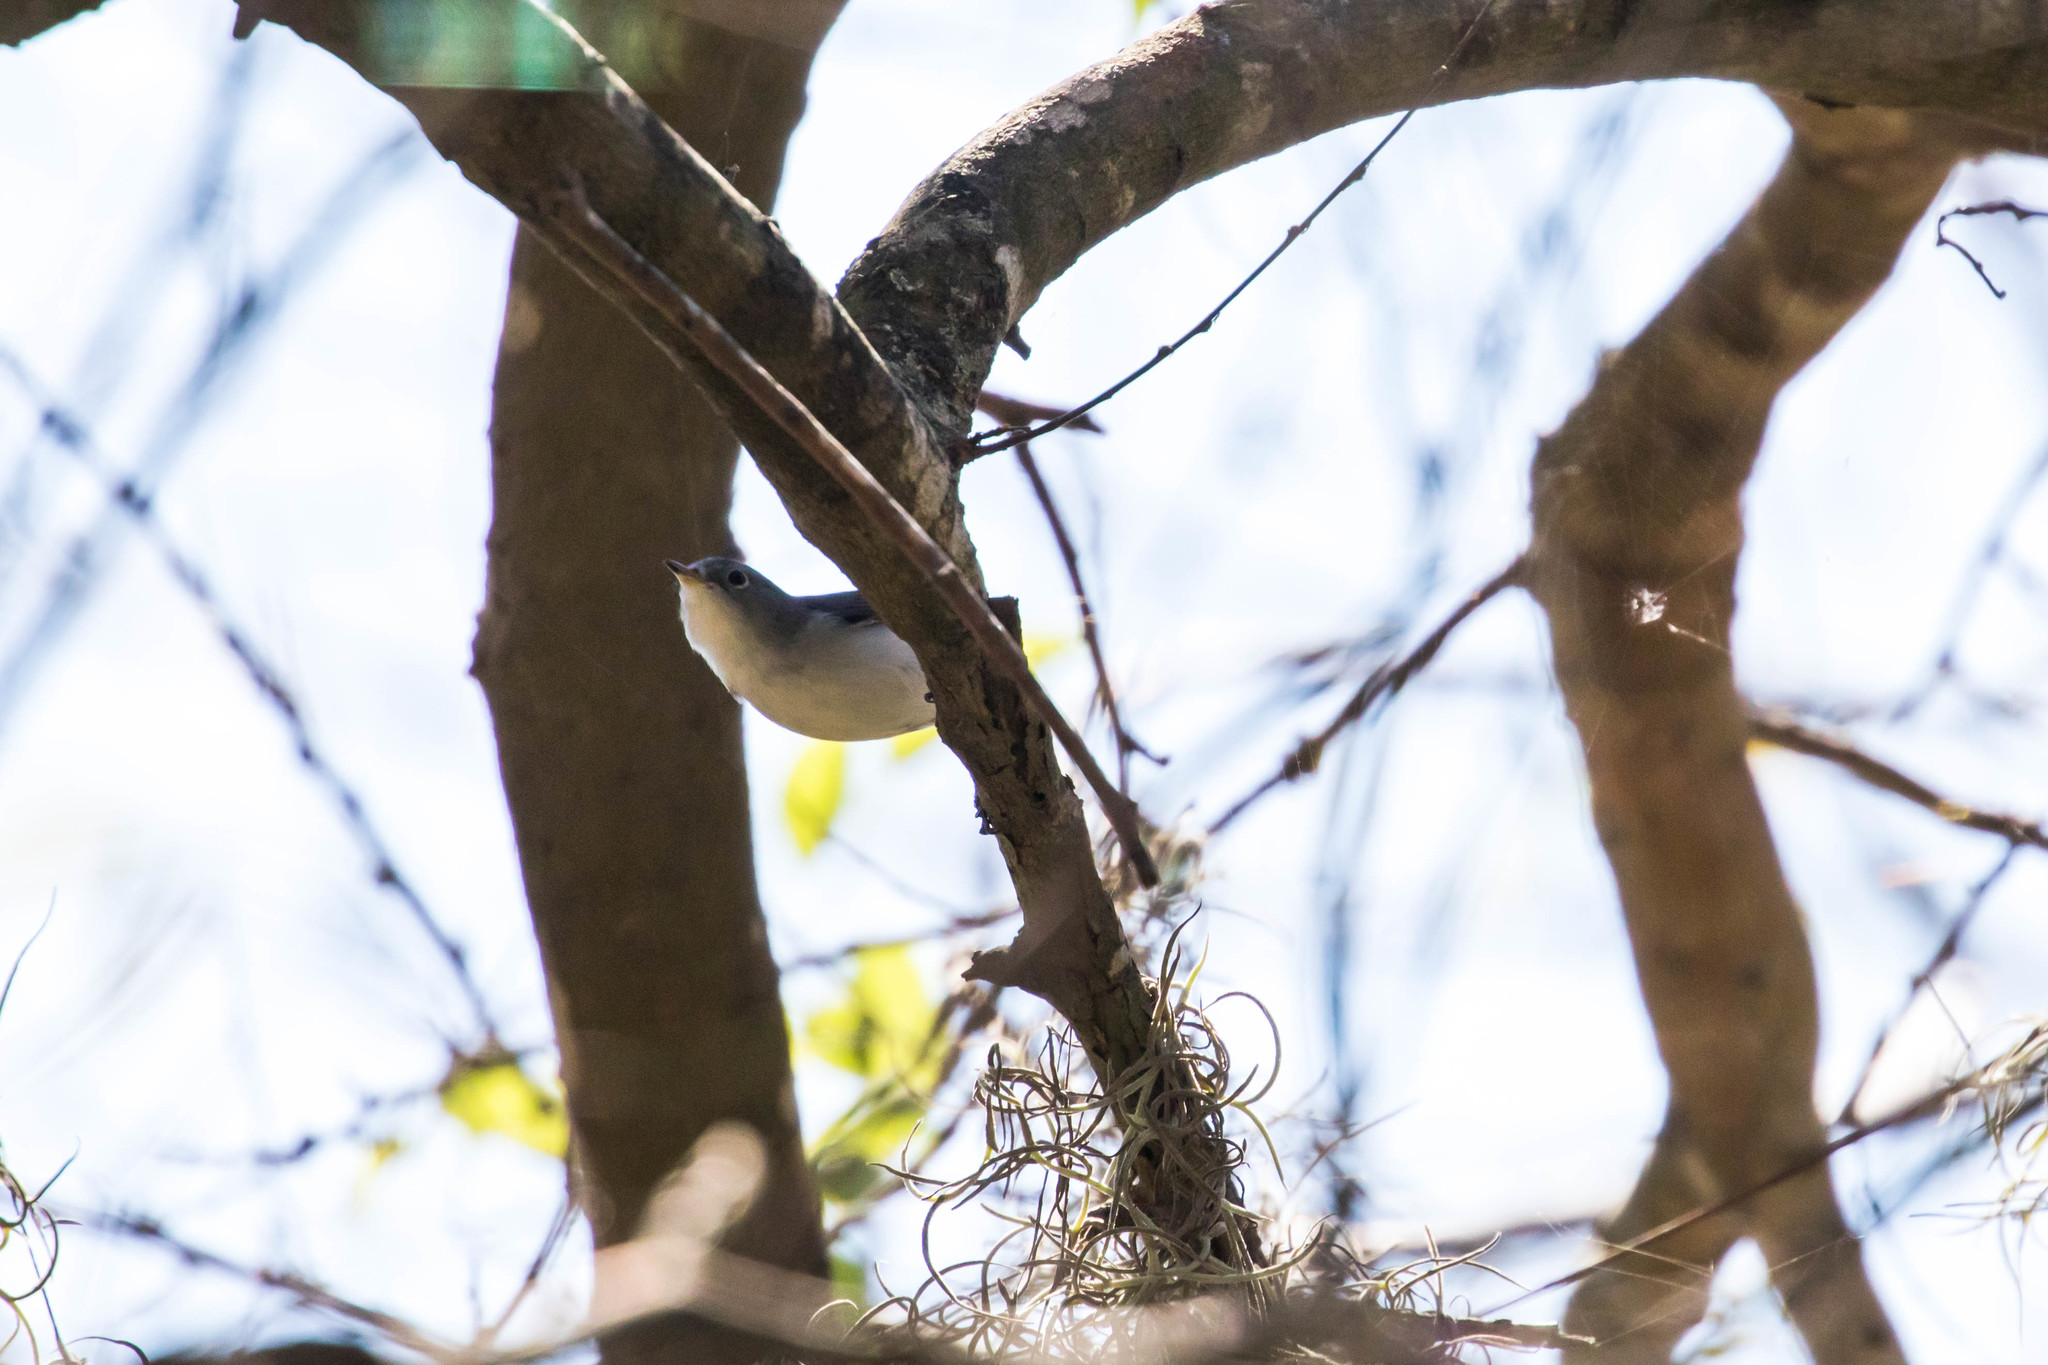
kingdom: Animalia
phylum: Chordata
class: Aves
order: Passeriformes
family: Polioptilidae
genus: Polioptila
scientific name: Polioptila caerulea
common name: Blue-gray gnatcatcher
